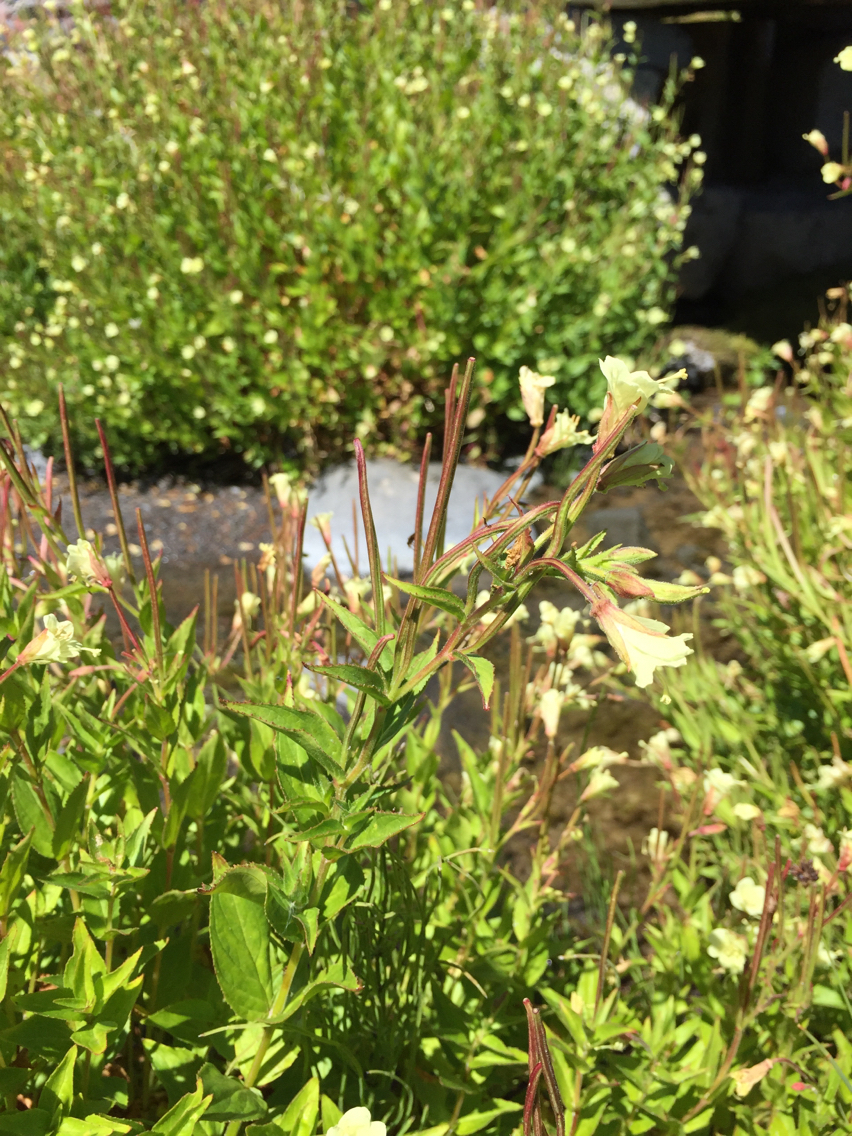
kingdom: Plantae
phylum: Tracheophyta
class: Magnoliopsida
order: Myrtales
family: Onagraceae
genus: Epilobium
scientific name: Epilobium luteum
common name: Yellow willowherb
